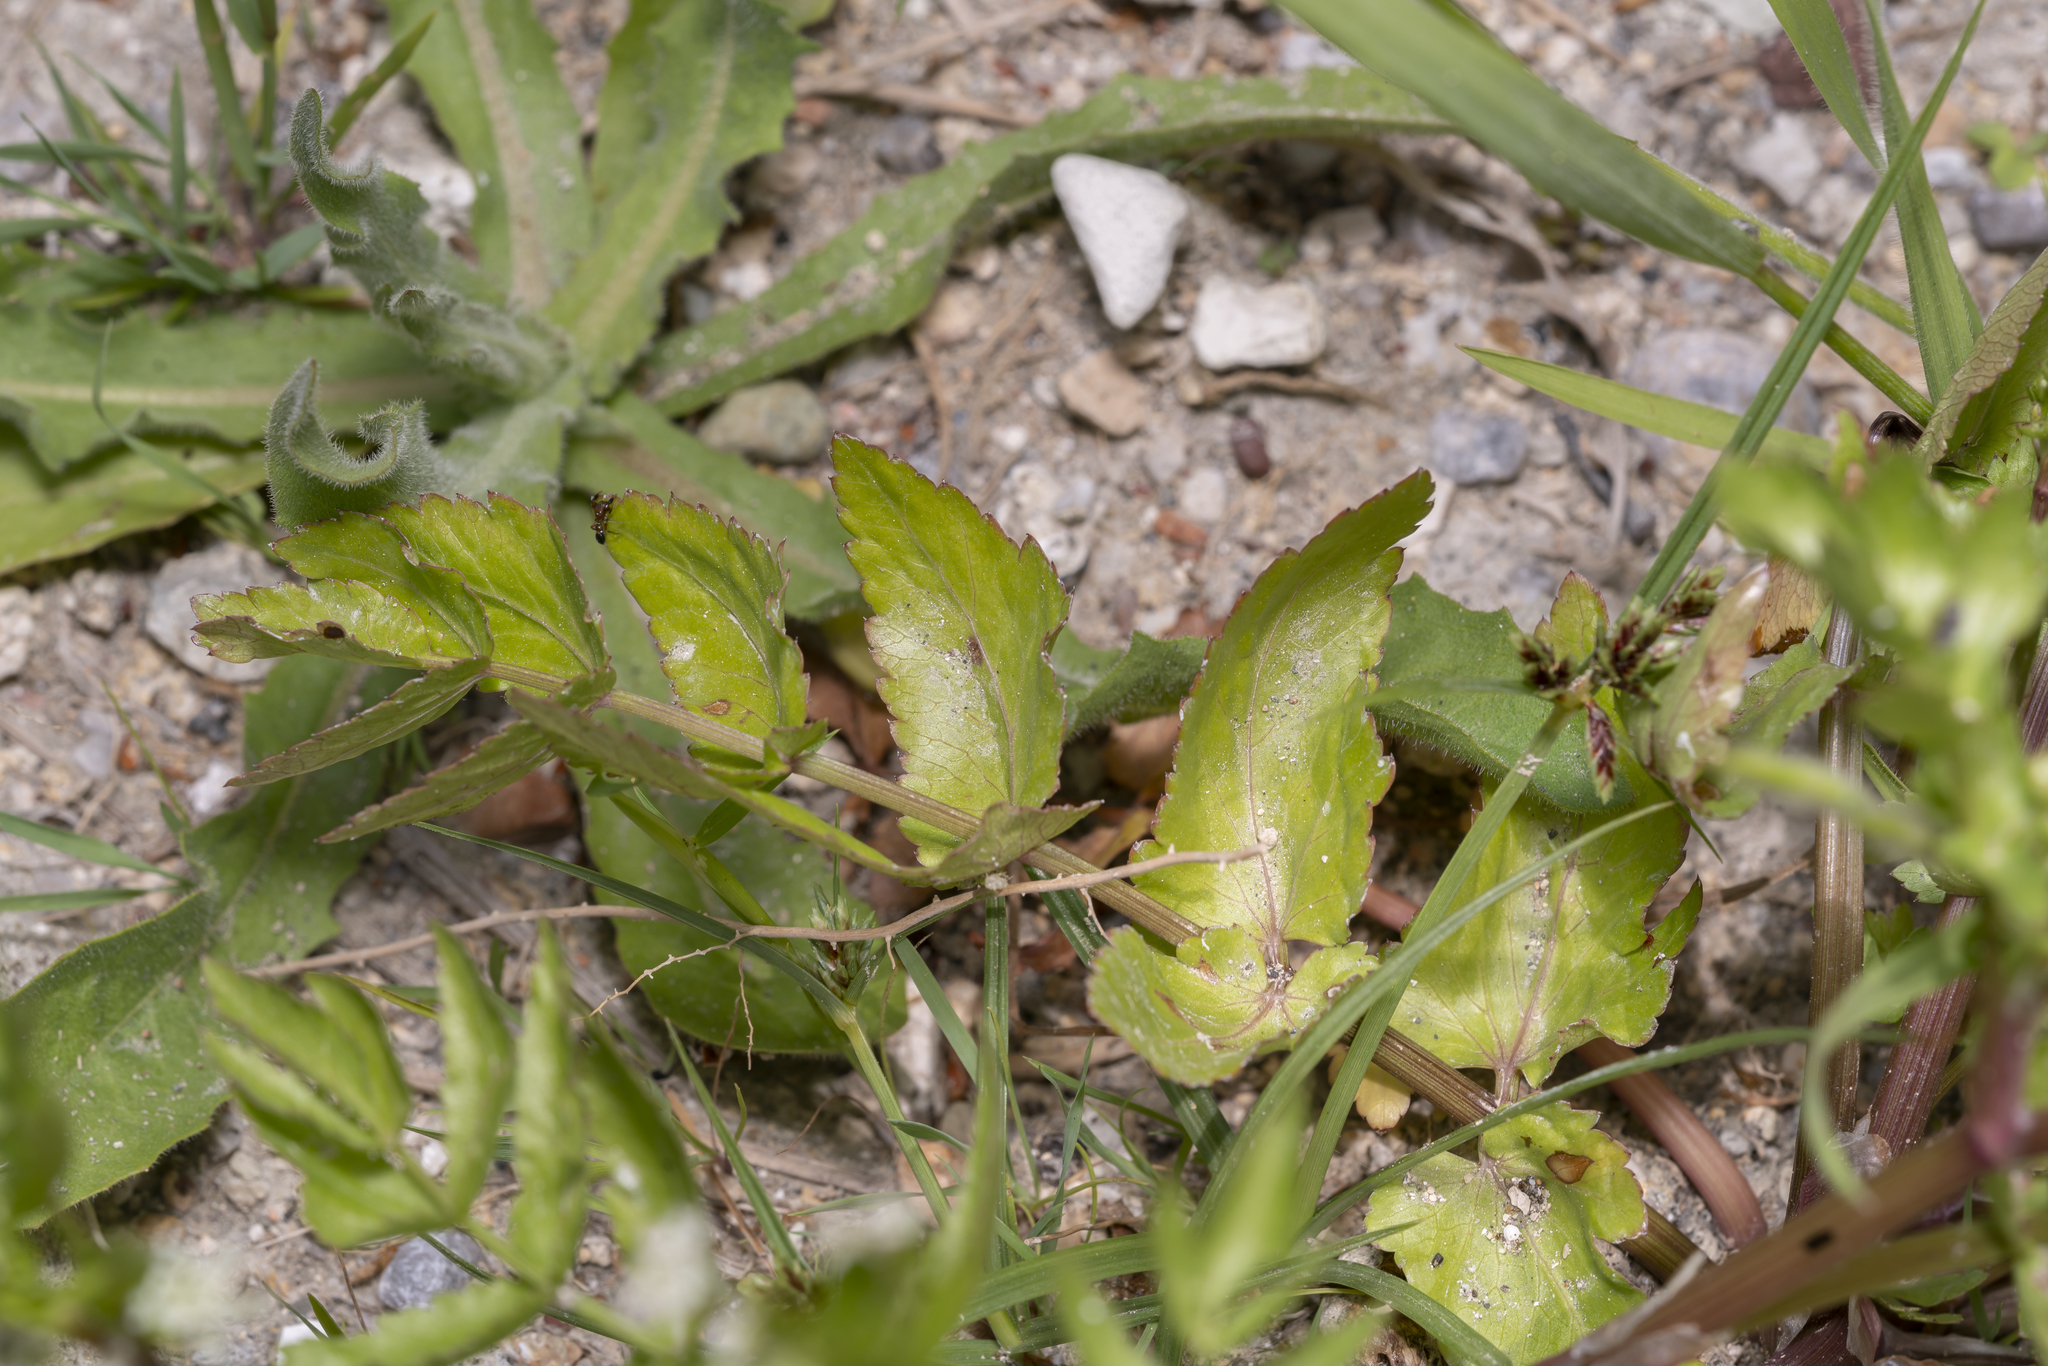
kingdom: Plantae
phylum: Tracheophyta
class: Magnoliopsida
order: Apiales
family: Apiaceae
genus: Helosciadium
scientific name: Helosciadium nodiflorum
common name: Fool's-watercress
